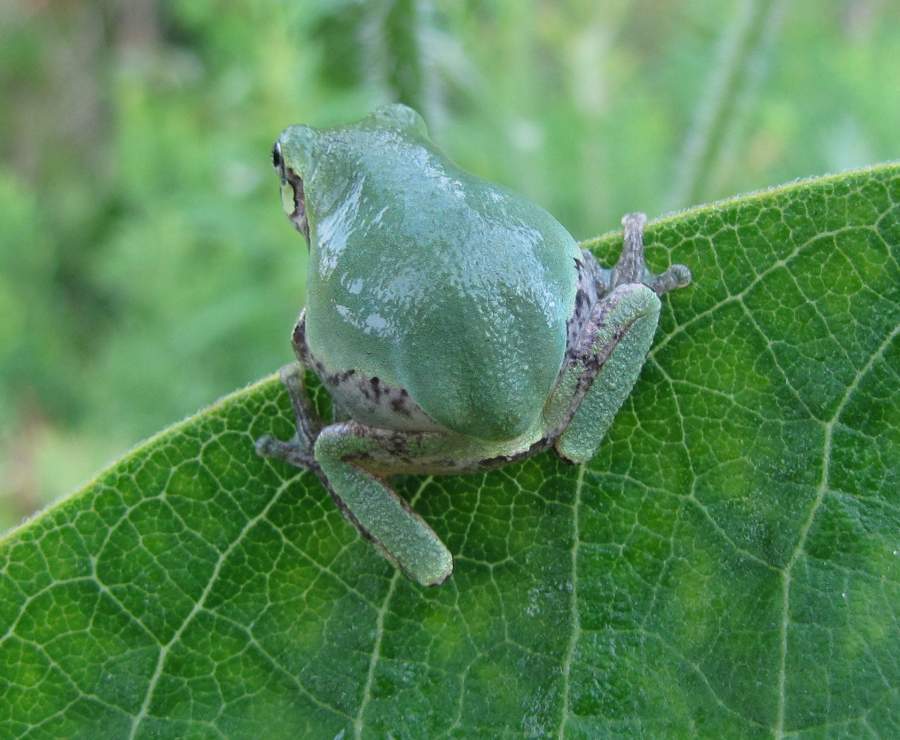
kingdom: Animalia
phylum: Chordata
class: Amphibia
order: Anura
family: Hylidae
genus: Dryophytes
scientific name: Dryophytes versicolor
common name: Gray treefrog
